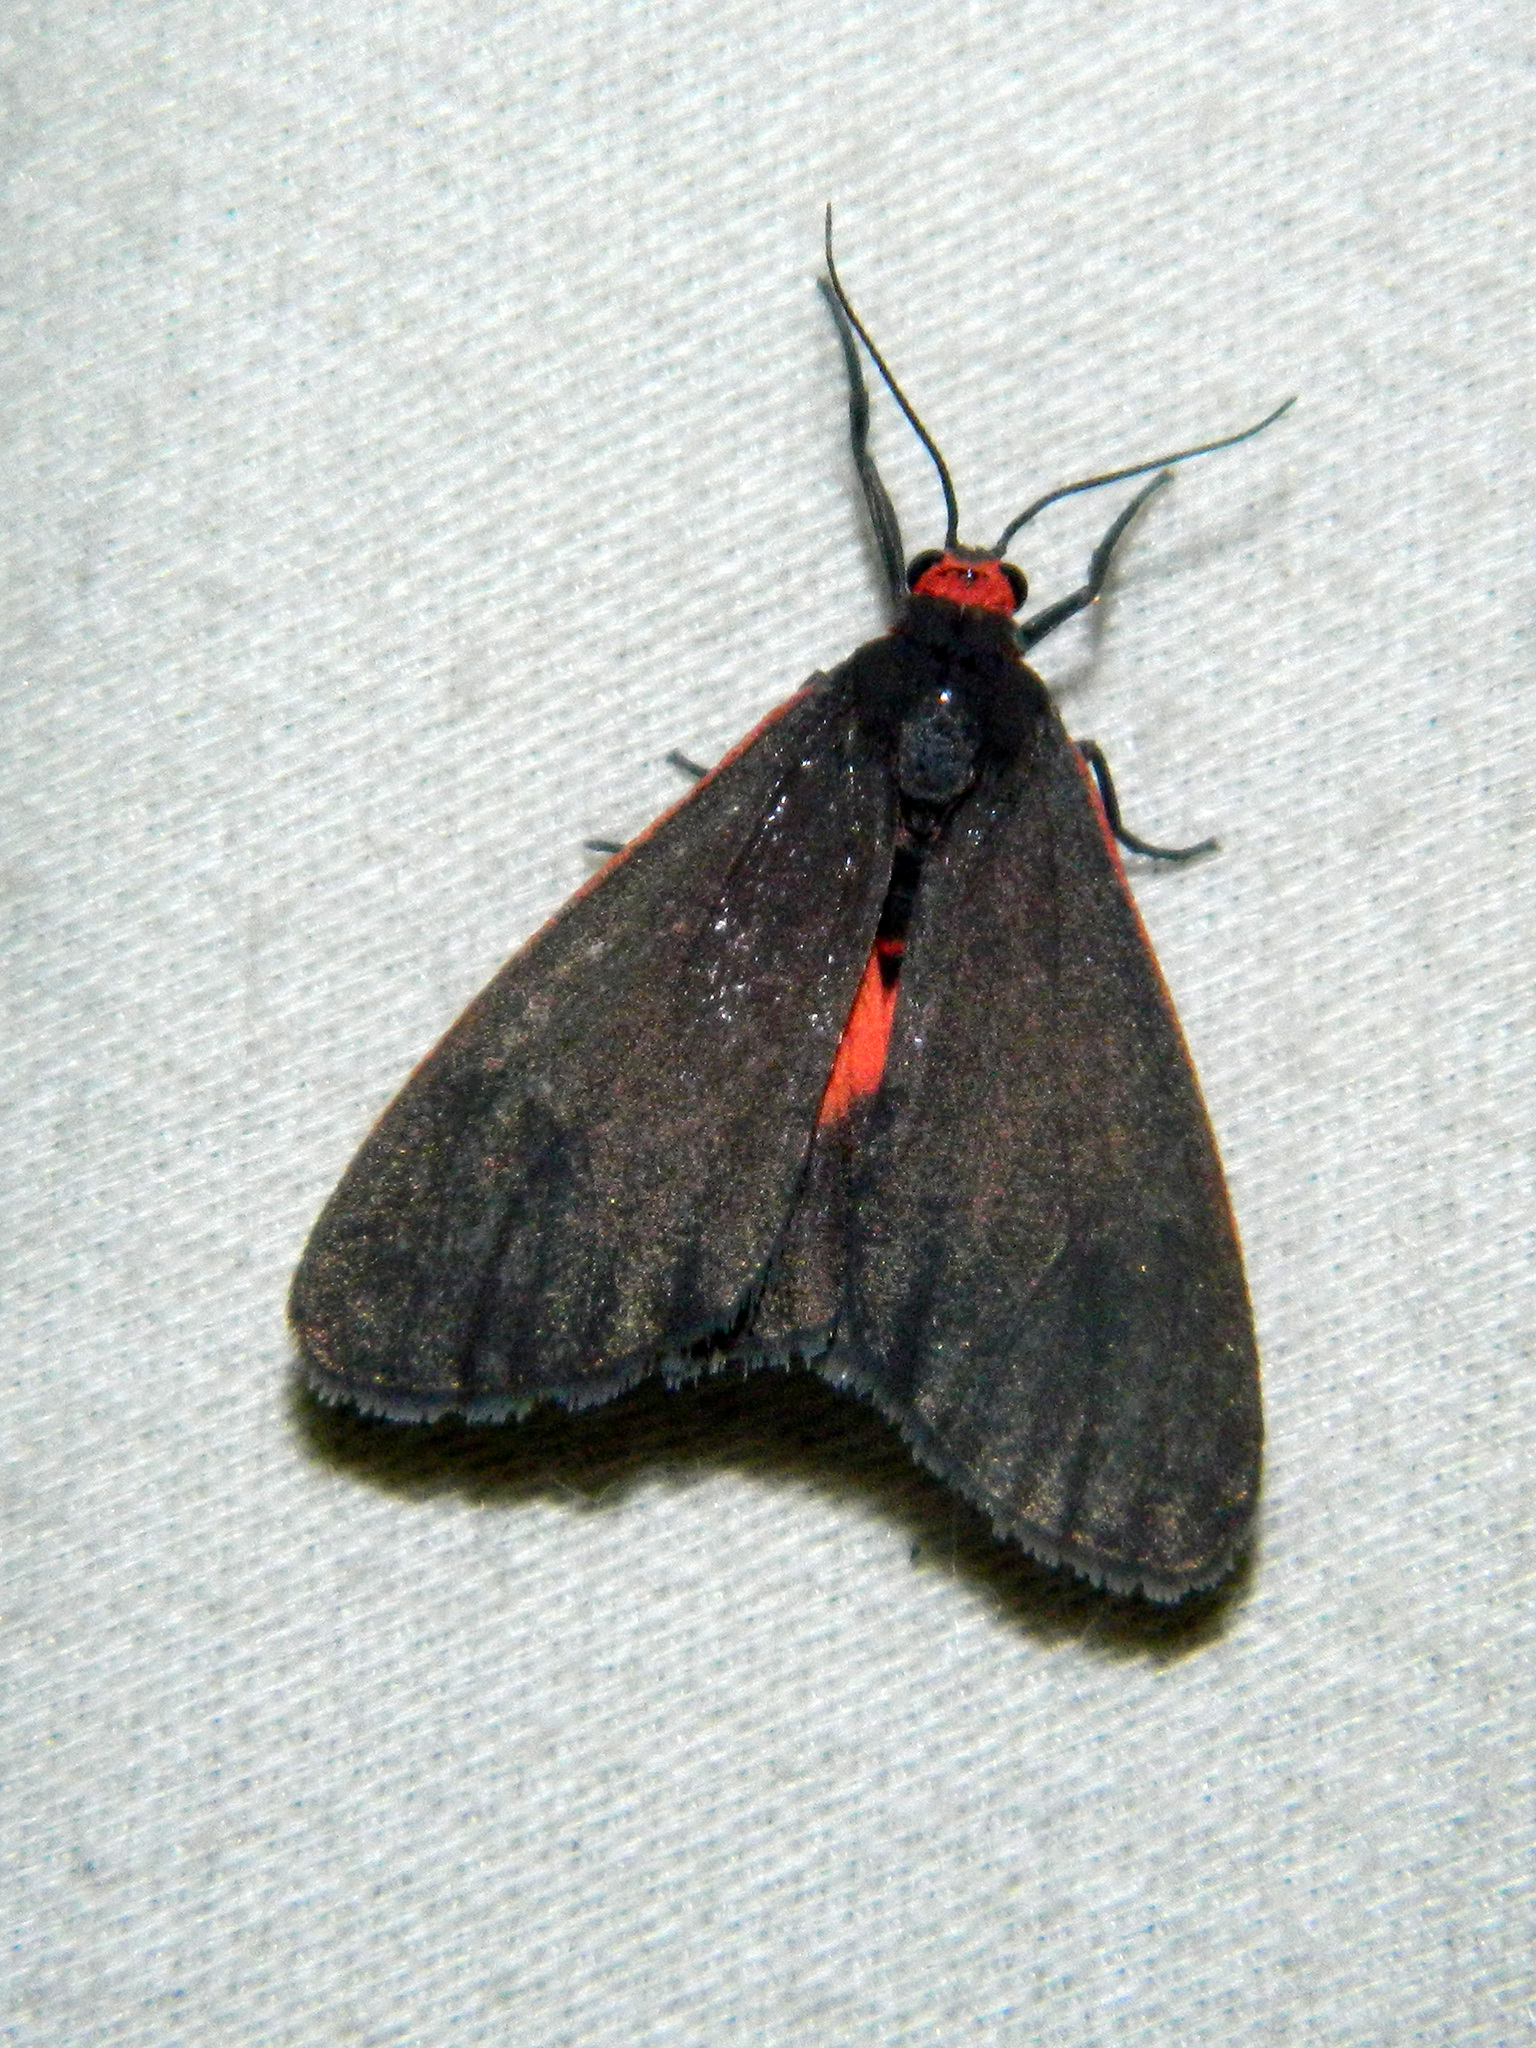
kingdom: Animalia
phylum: Arthropoda
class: Insecta
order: Lepidoptera
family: Erebidae
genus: Virbia
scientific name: Virbia laeta
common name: Joyful holomelina moth
